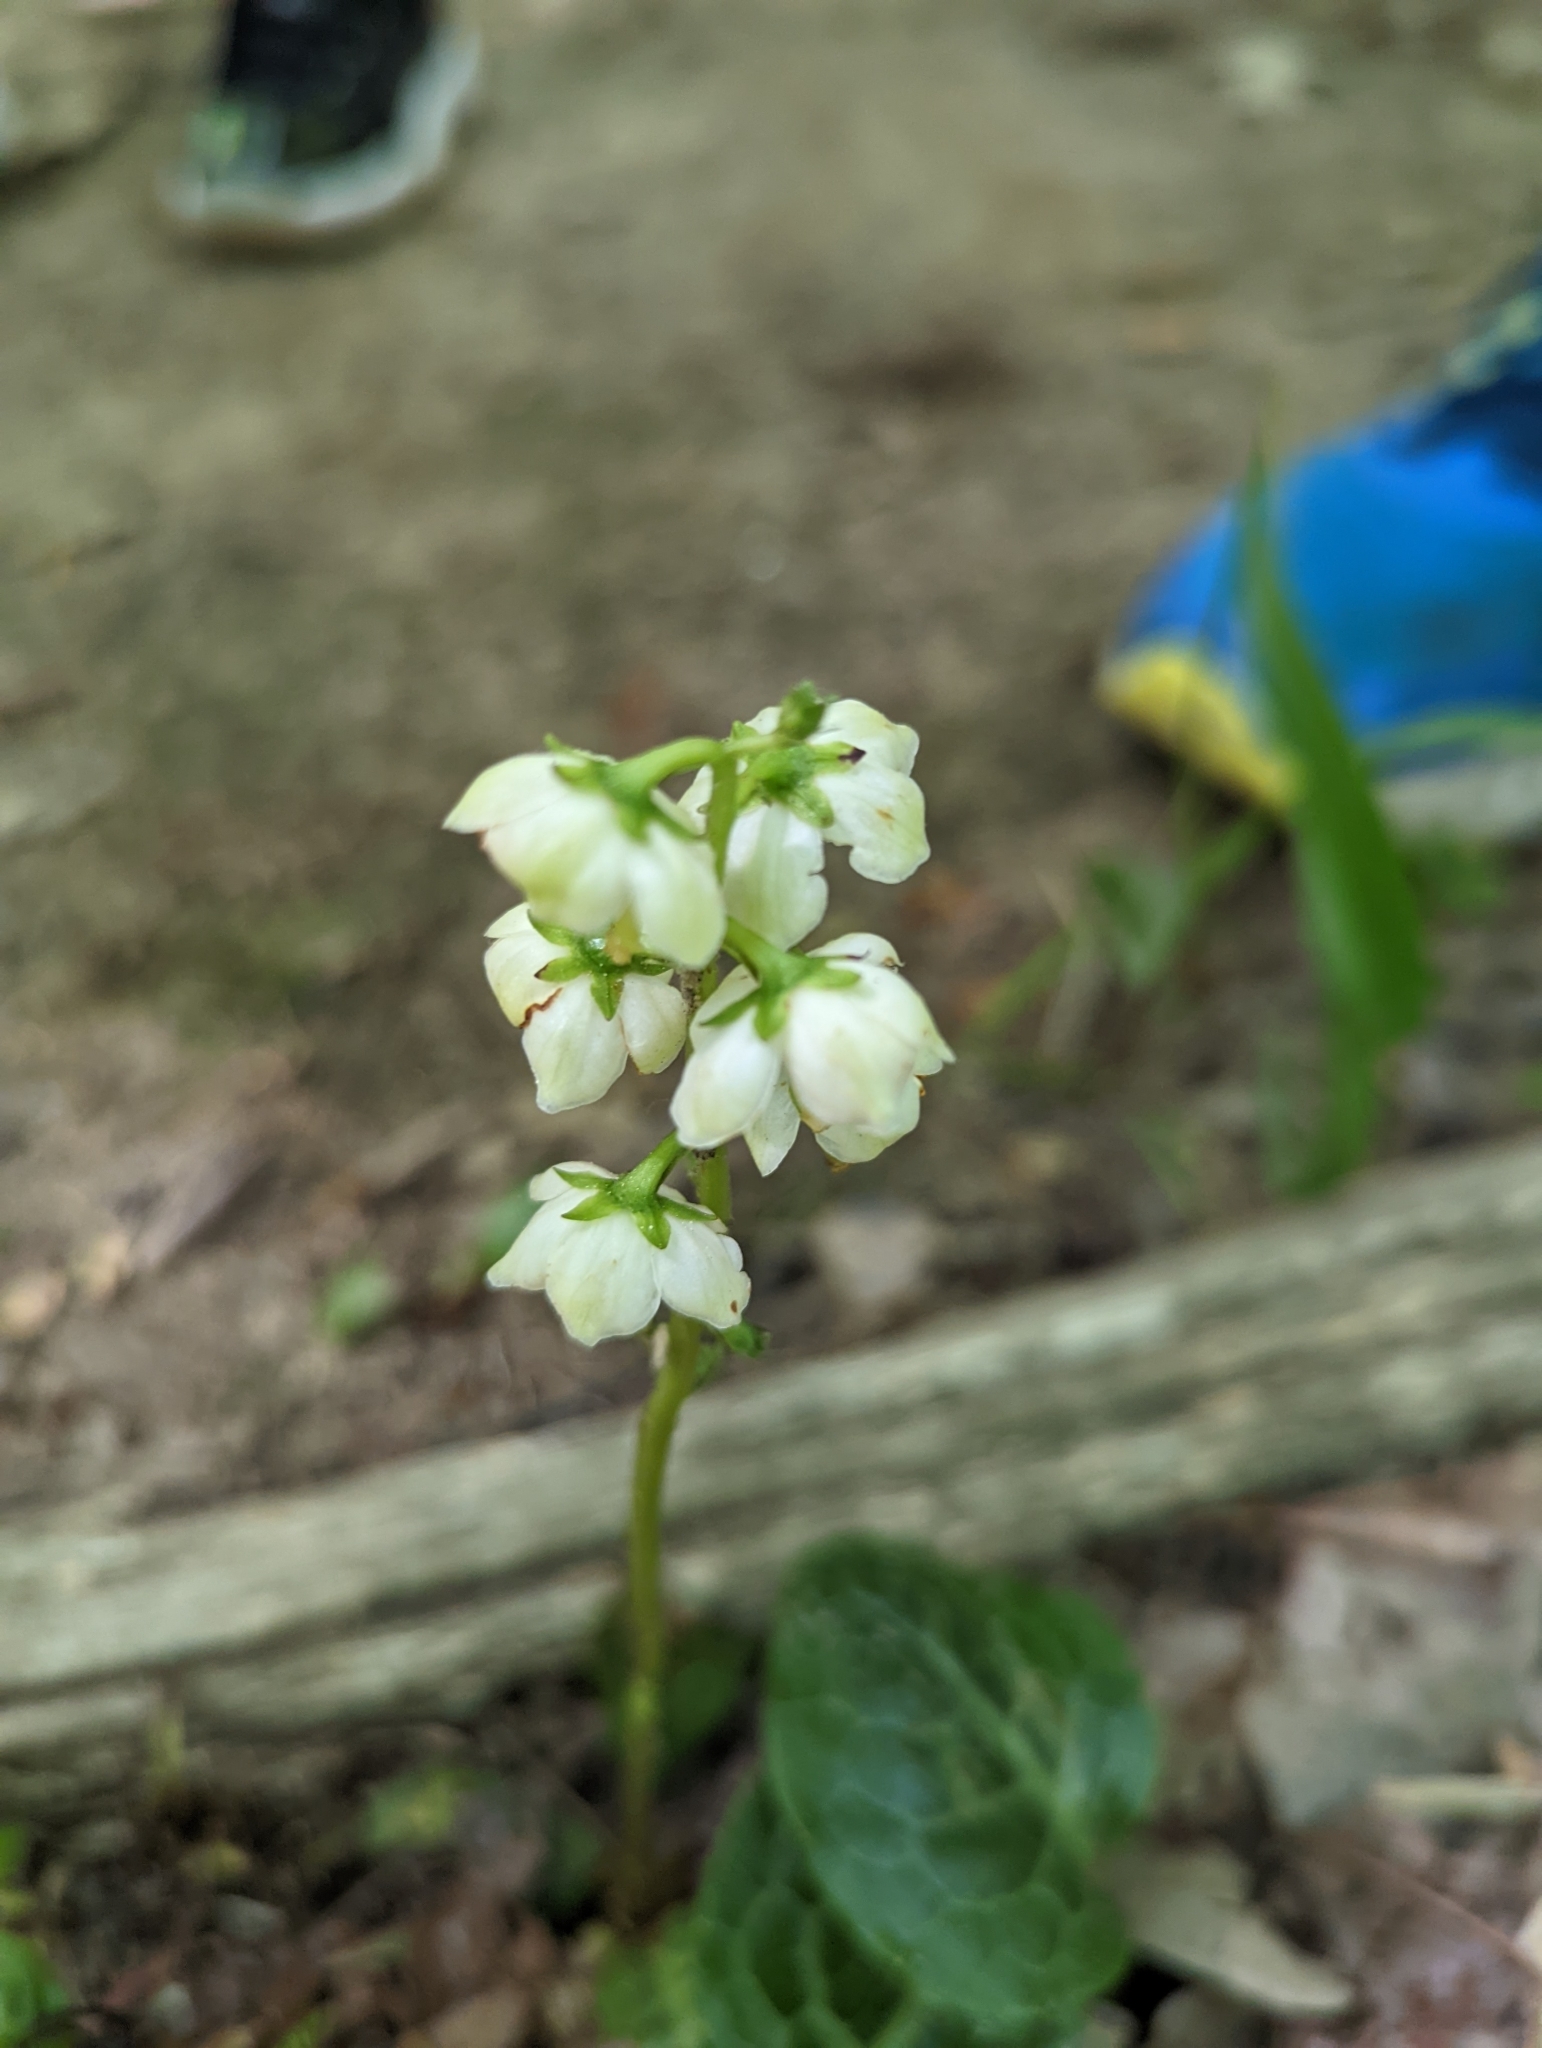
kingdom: Plantae
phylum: Tracheophyta
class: Magnoliopsida
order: Ericales
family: Ericaceae
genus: Pyrola
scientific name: Pyrola americana
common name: American wintergreen
